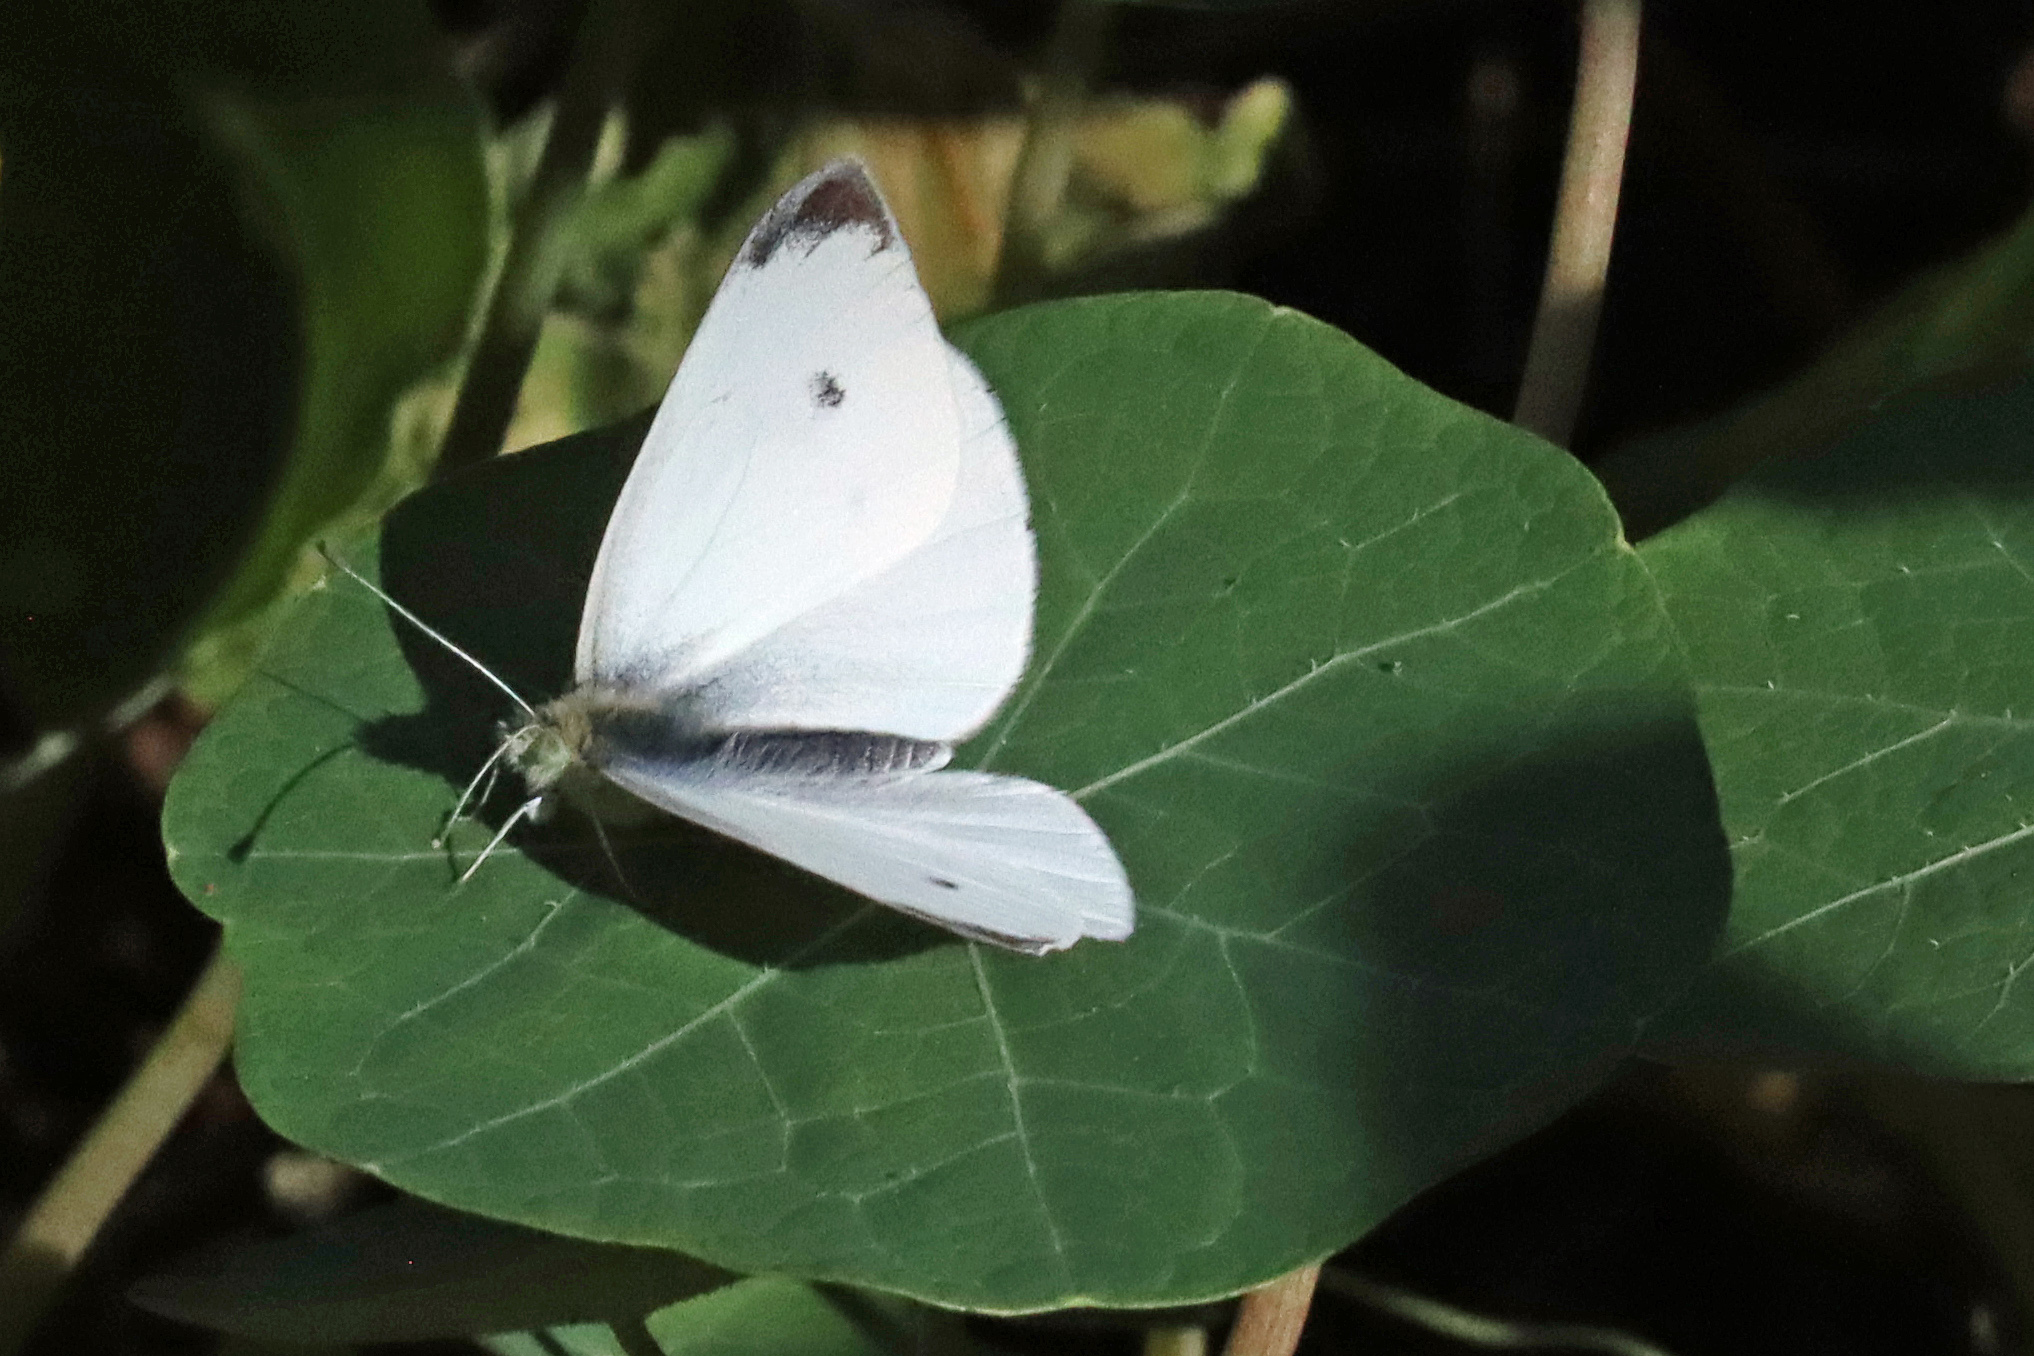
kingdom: Animalia
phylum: Arthropoda
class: Insecta
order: Lepidoptera
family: Pieridae
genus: Pieris
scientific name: Pieris rapae
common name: Small white
